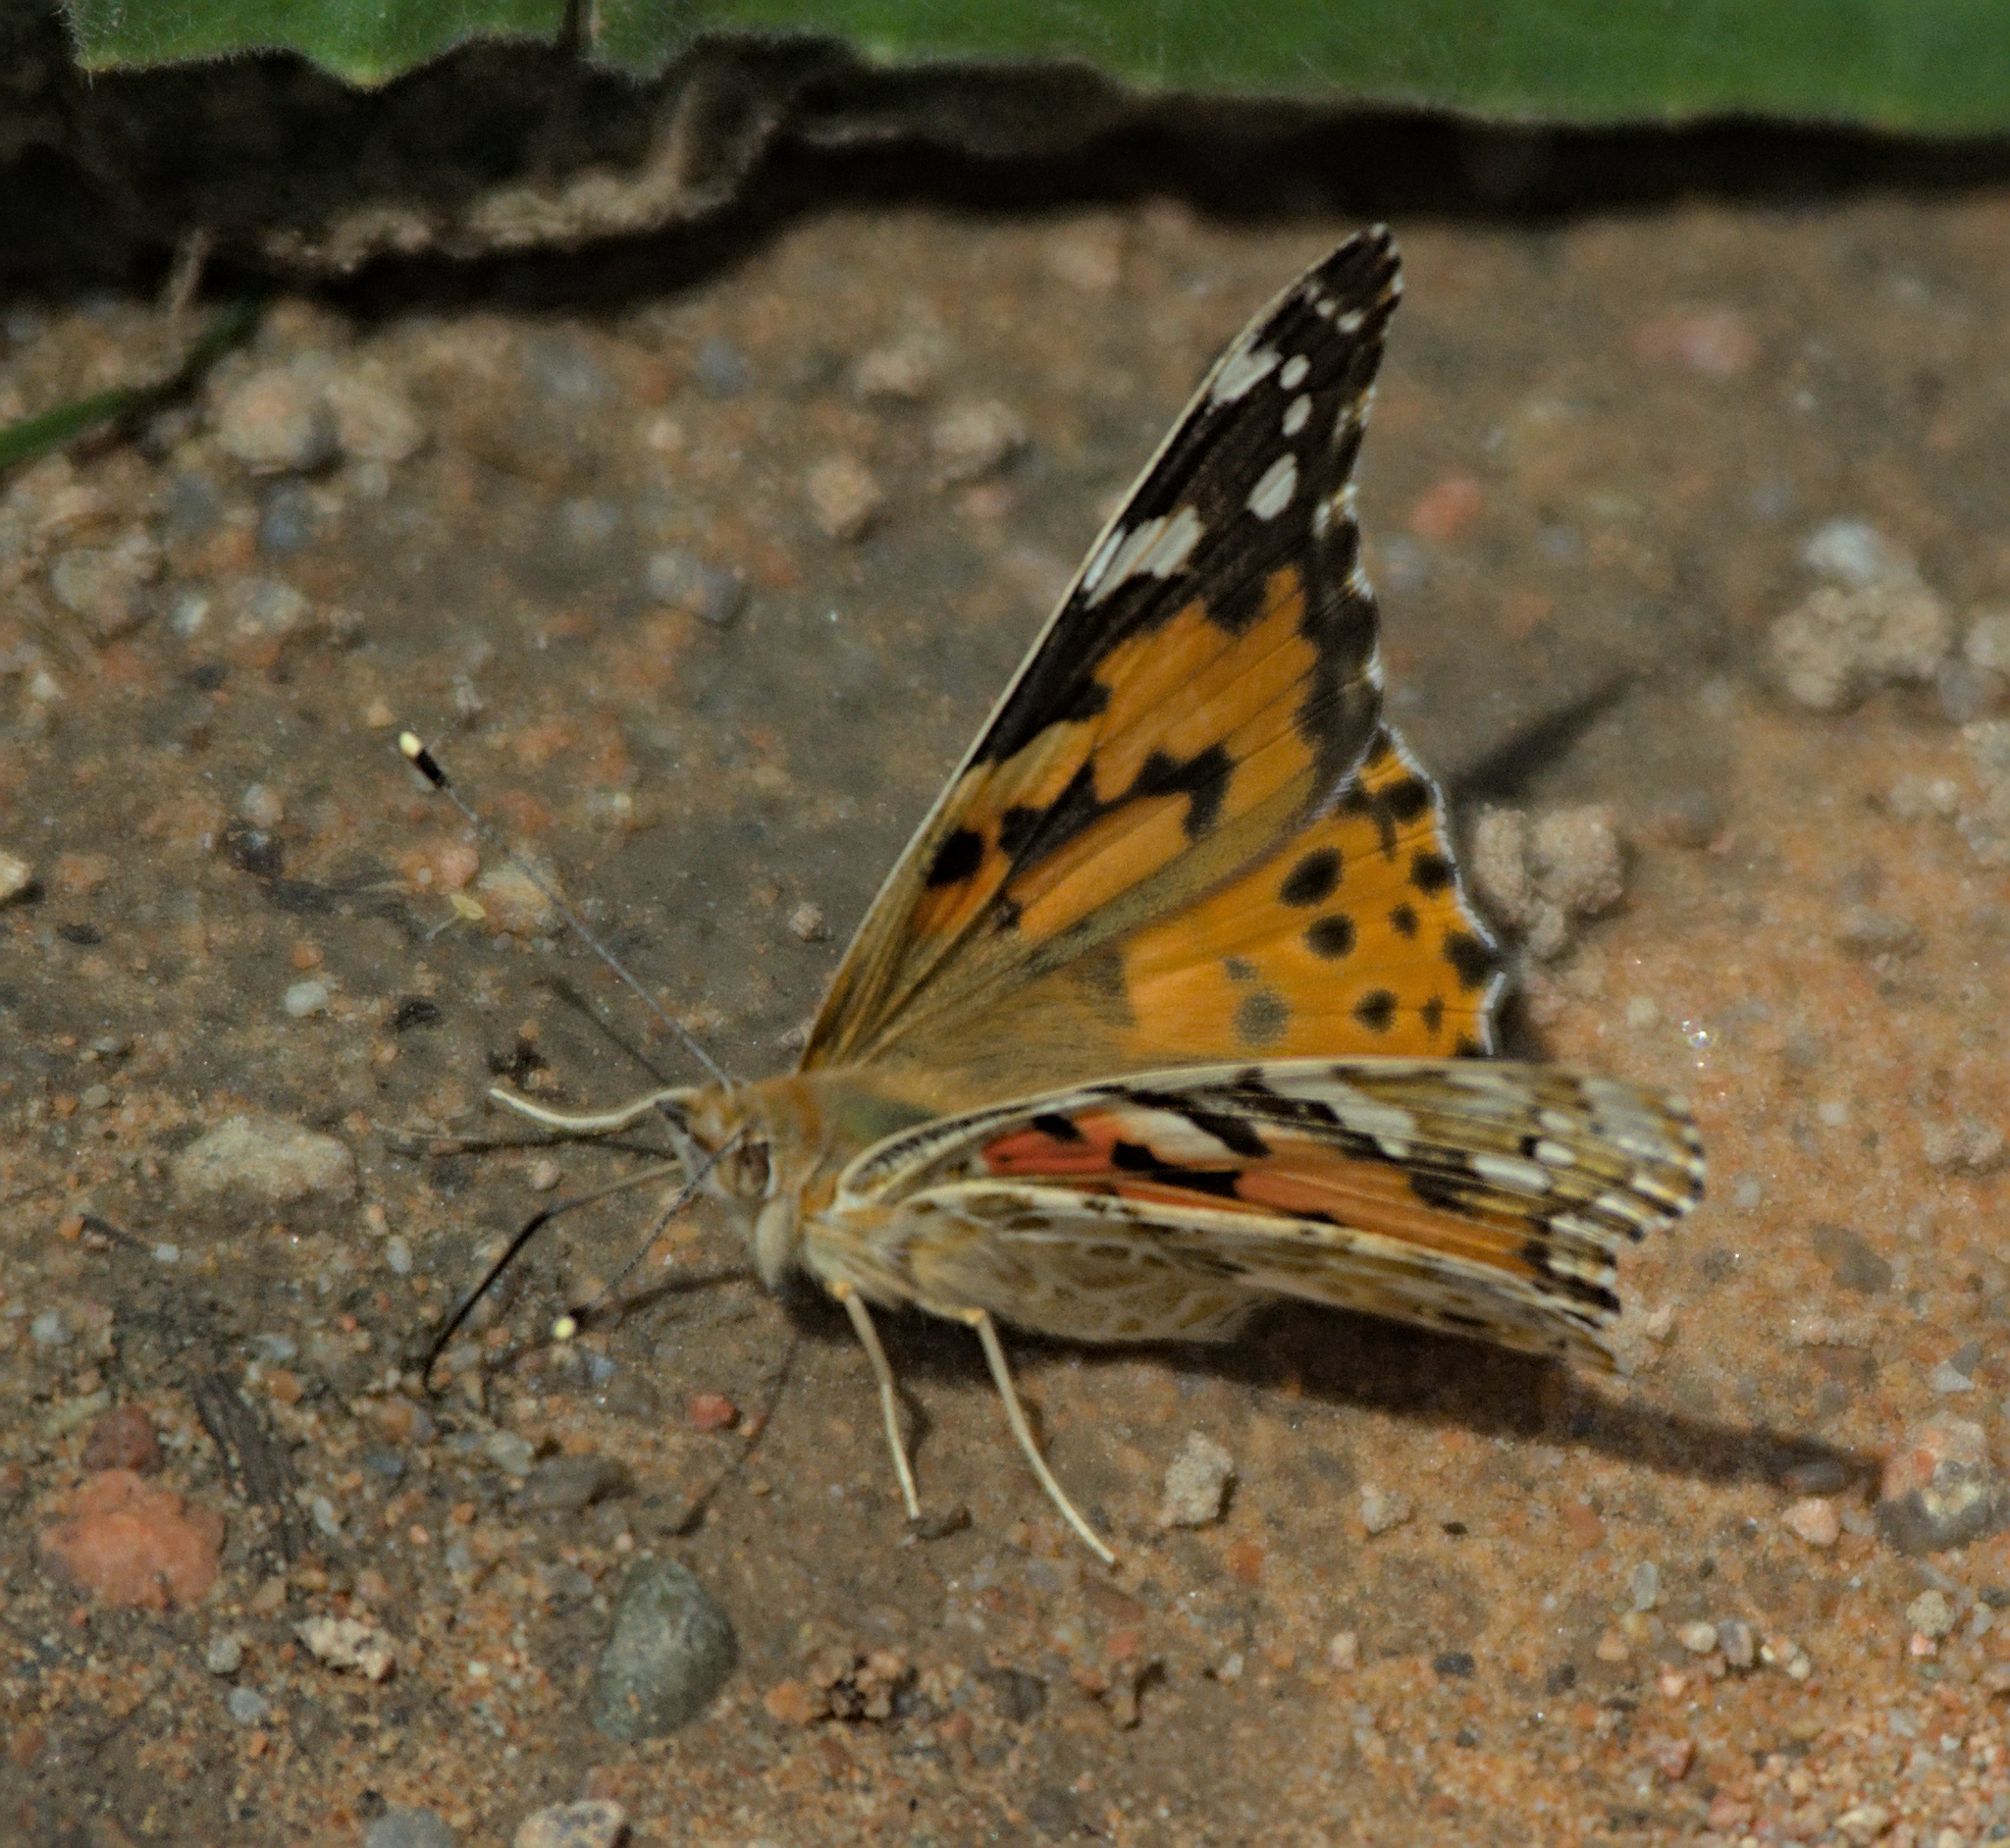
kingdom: Animalia
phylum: Arthropoda
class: Insecta
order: Lepidoptera
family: Nymphalidae
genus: Vanessa
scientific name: Vanessa cardui
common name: Painted lady
